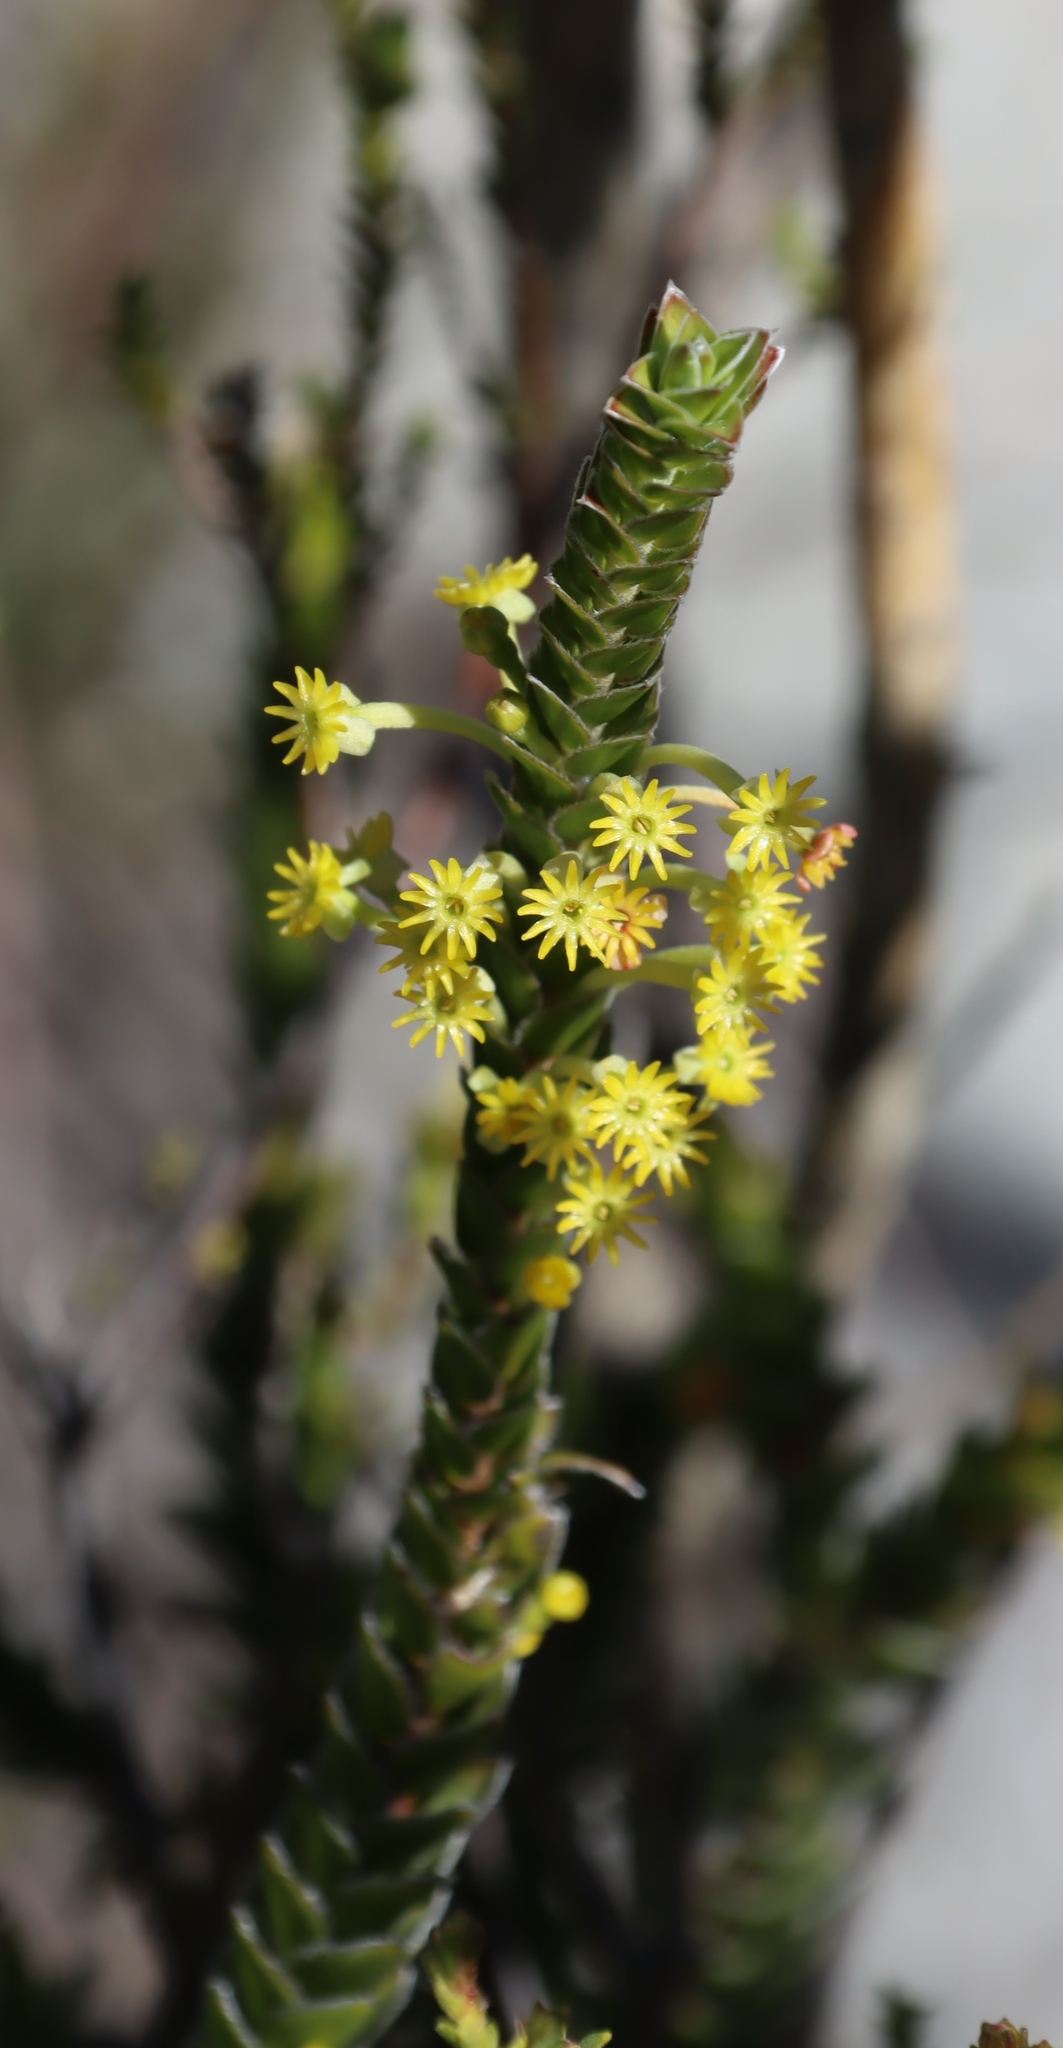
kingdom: Plantae
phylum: Tracheophyta
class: Magnoliopsida
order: Malvales
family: Thymelaeaceae
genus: Struthiola
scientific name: Struthiola argentea
